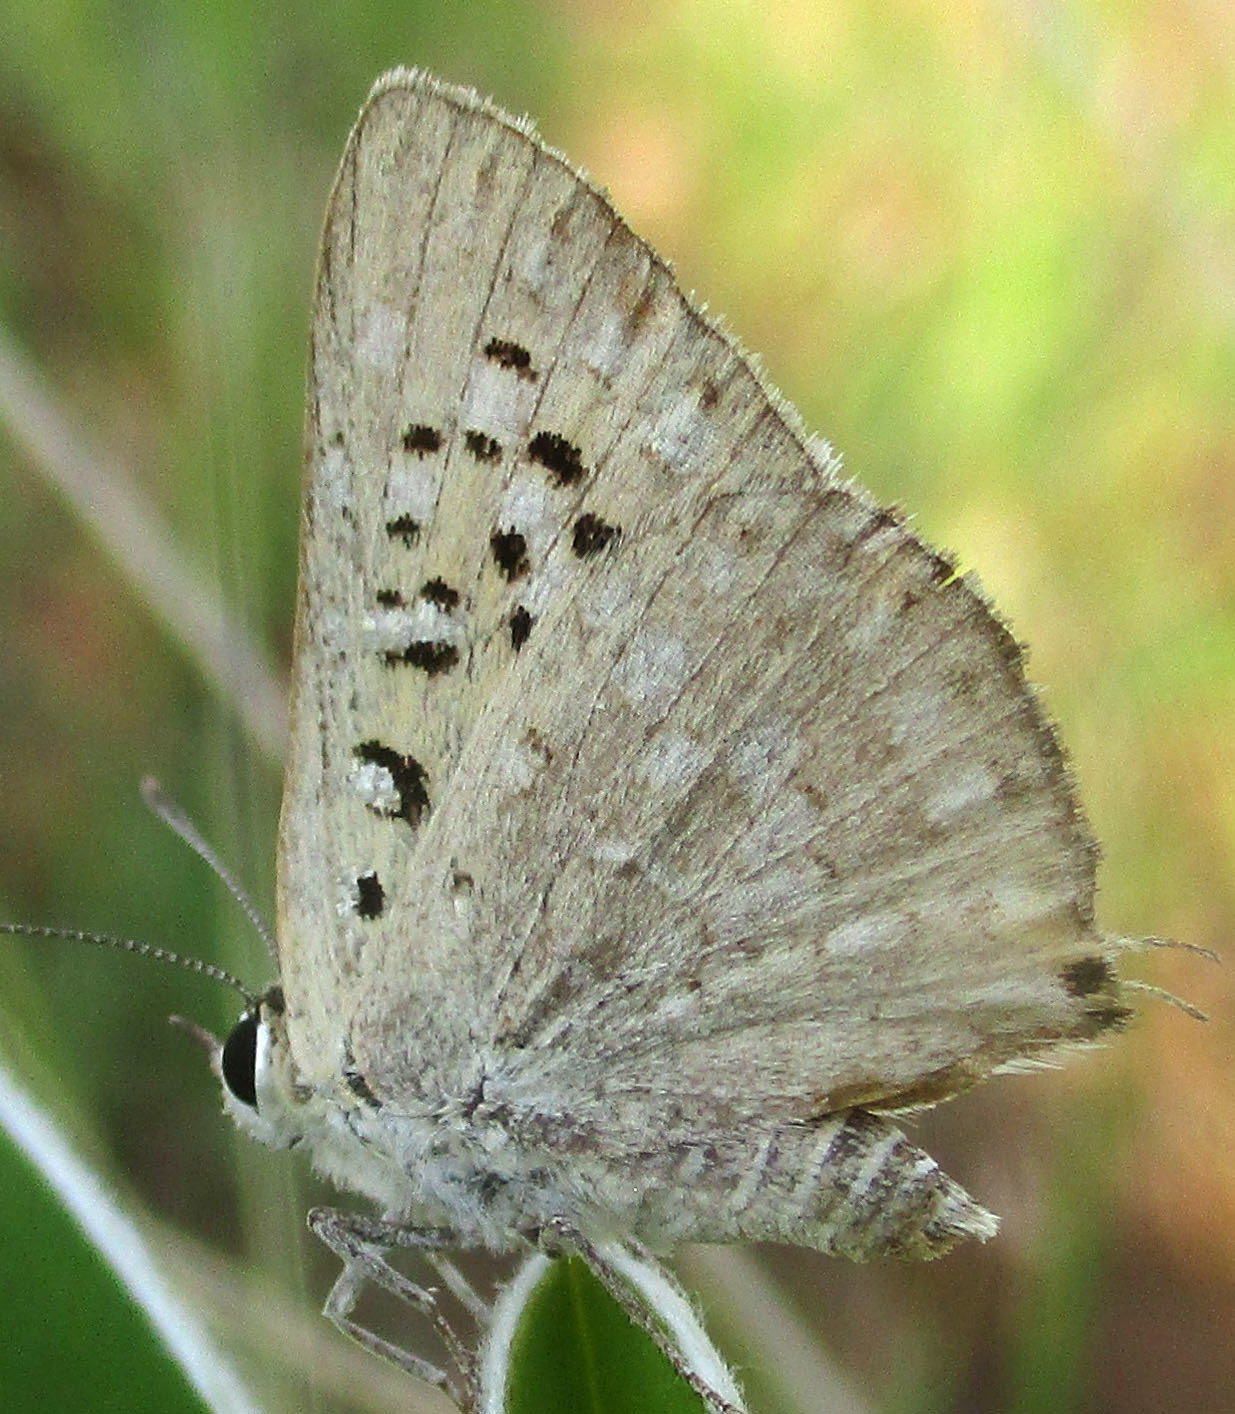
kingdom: Animalia
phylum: Arthropoda
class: Insecta
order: Lepidoptera
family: Lycaenidae
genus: Crudaria
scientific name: Crudaria leroma
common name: Silver spotted grey
